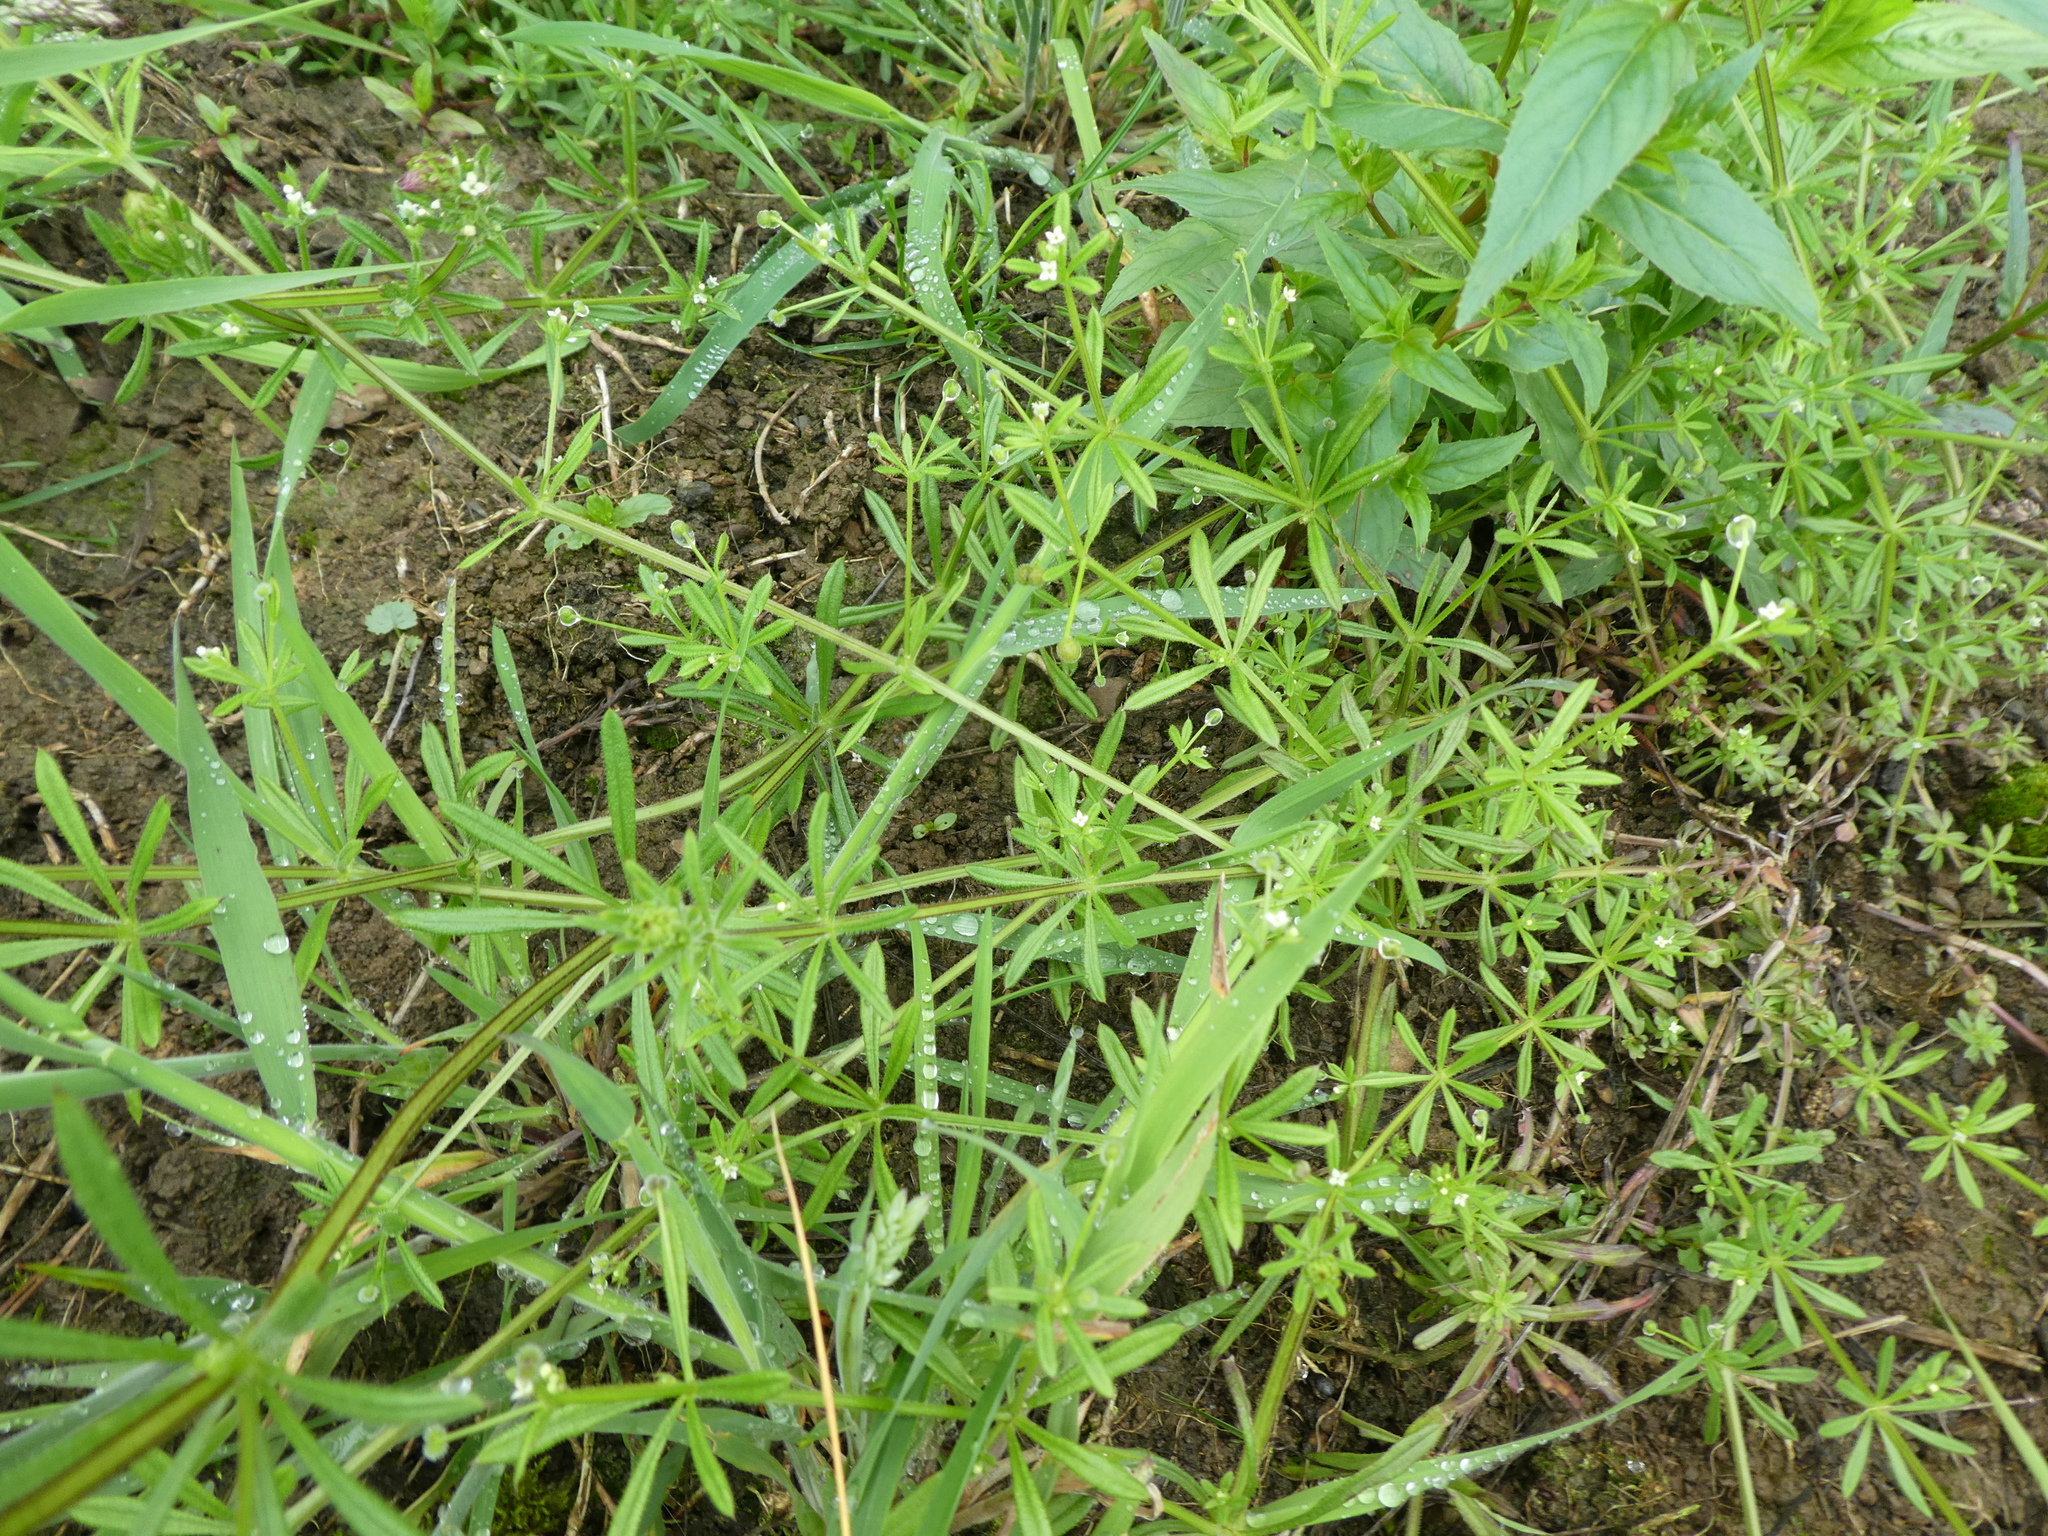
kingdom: Plantae
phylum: Tracheophyta
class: Magnoliopsida
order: Gentianales
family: Rubiaceae
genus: Galium
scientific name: Galium aparine
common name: Cleavers
